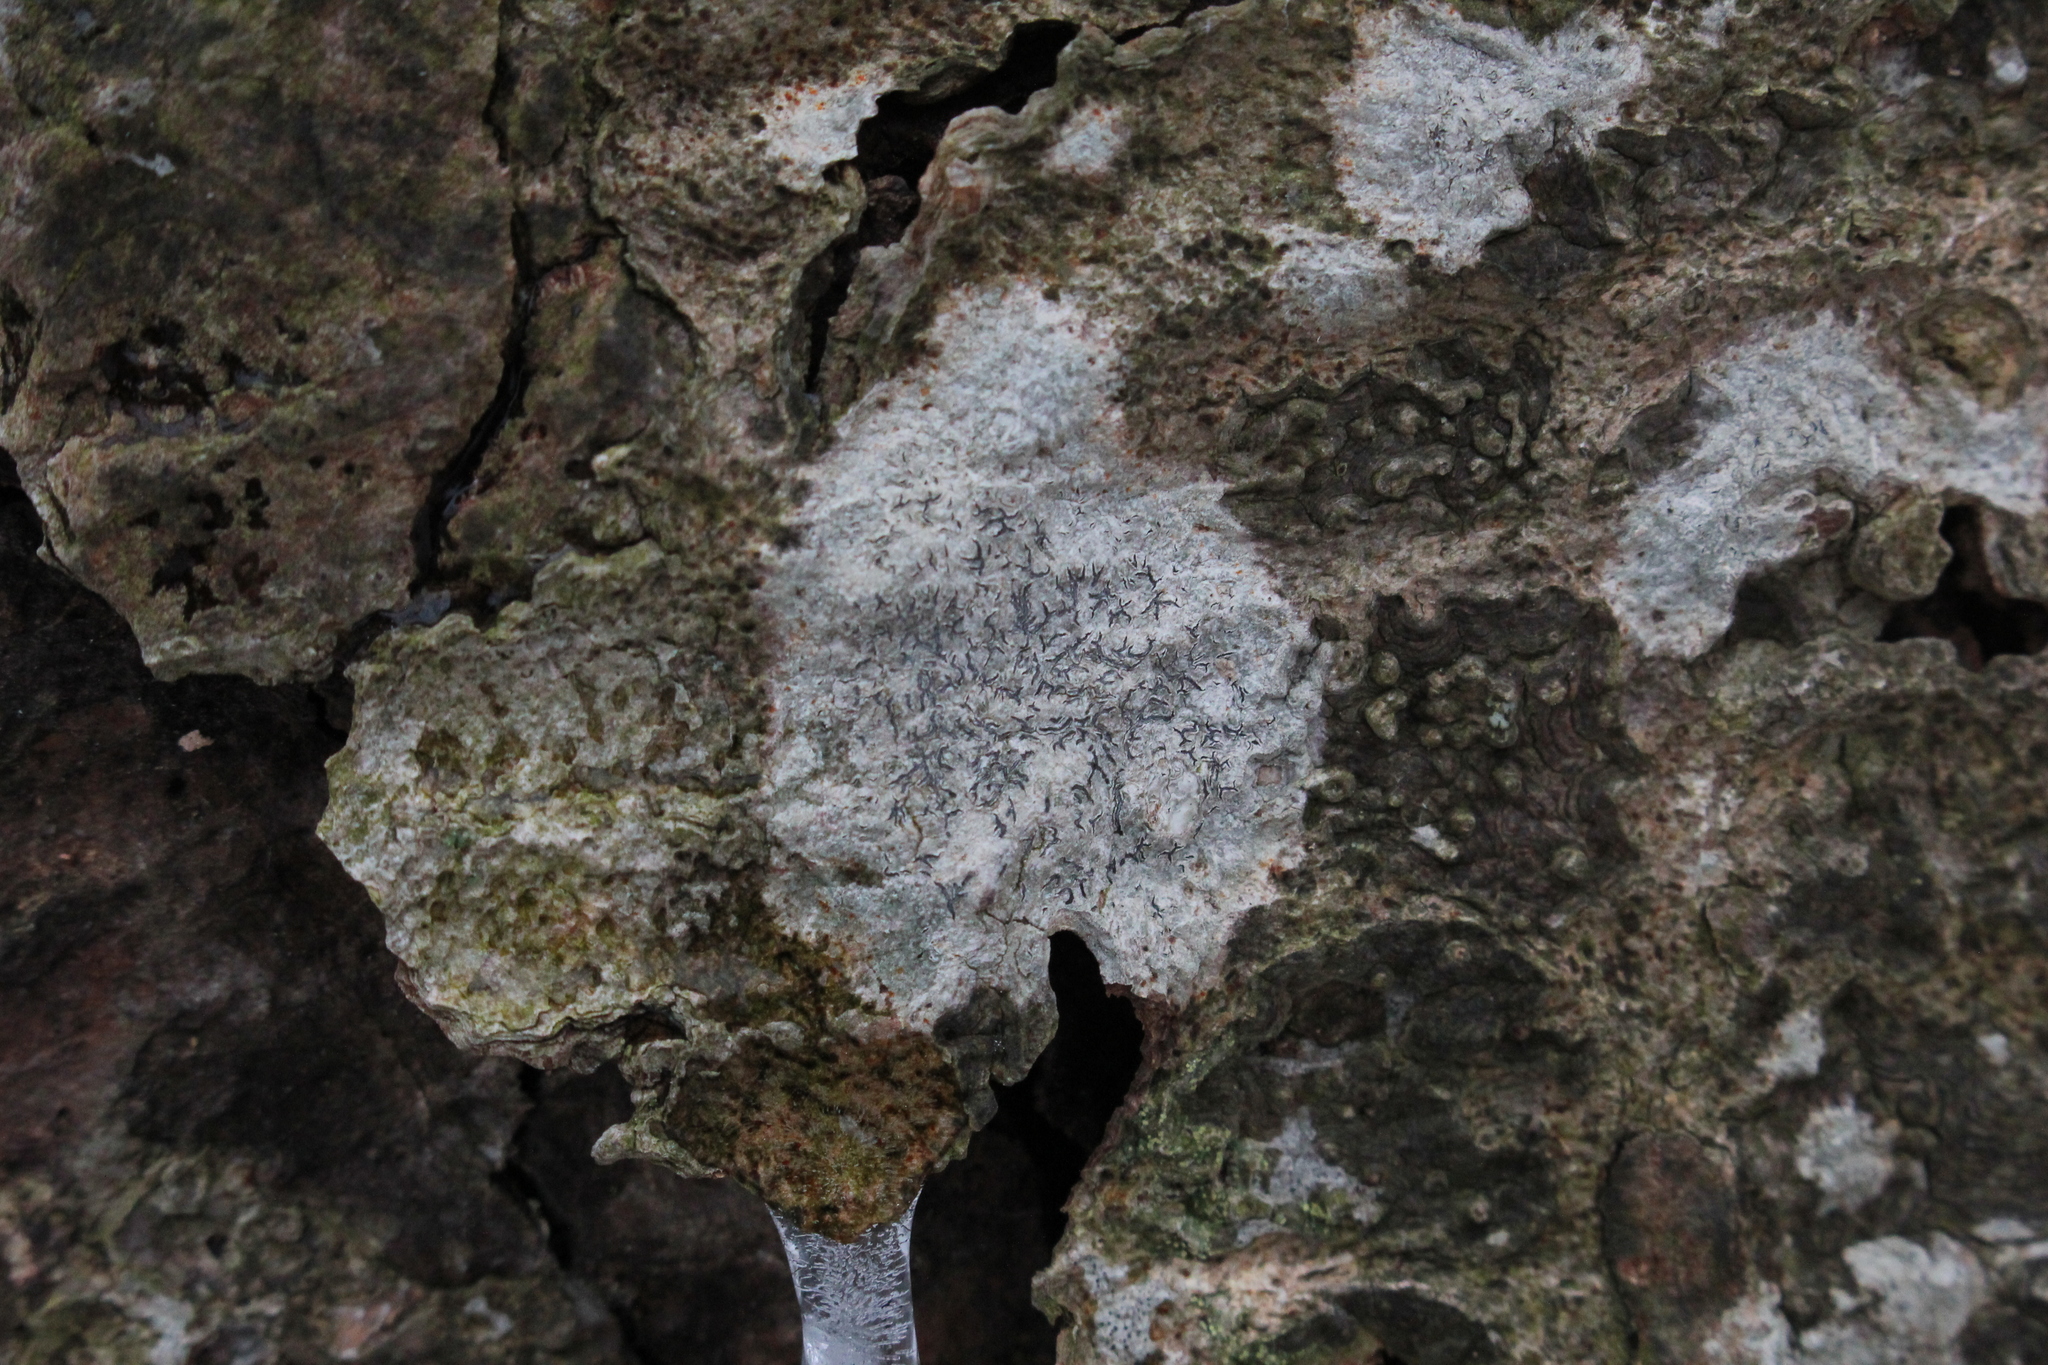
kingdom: Fungi
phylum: Ascomycota
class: Lecanoromycetes
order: Ostropales
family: Graphidaceae
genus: Graphis
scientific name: Graphis scripta
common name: Script lichen
